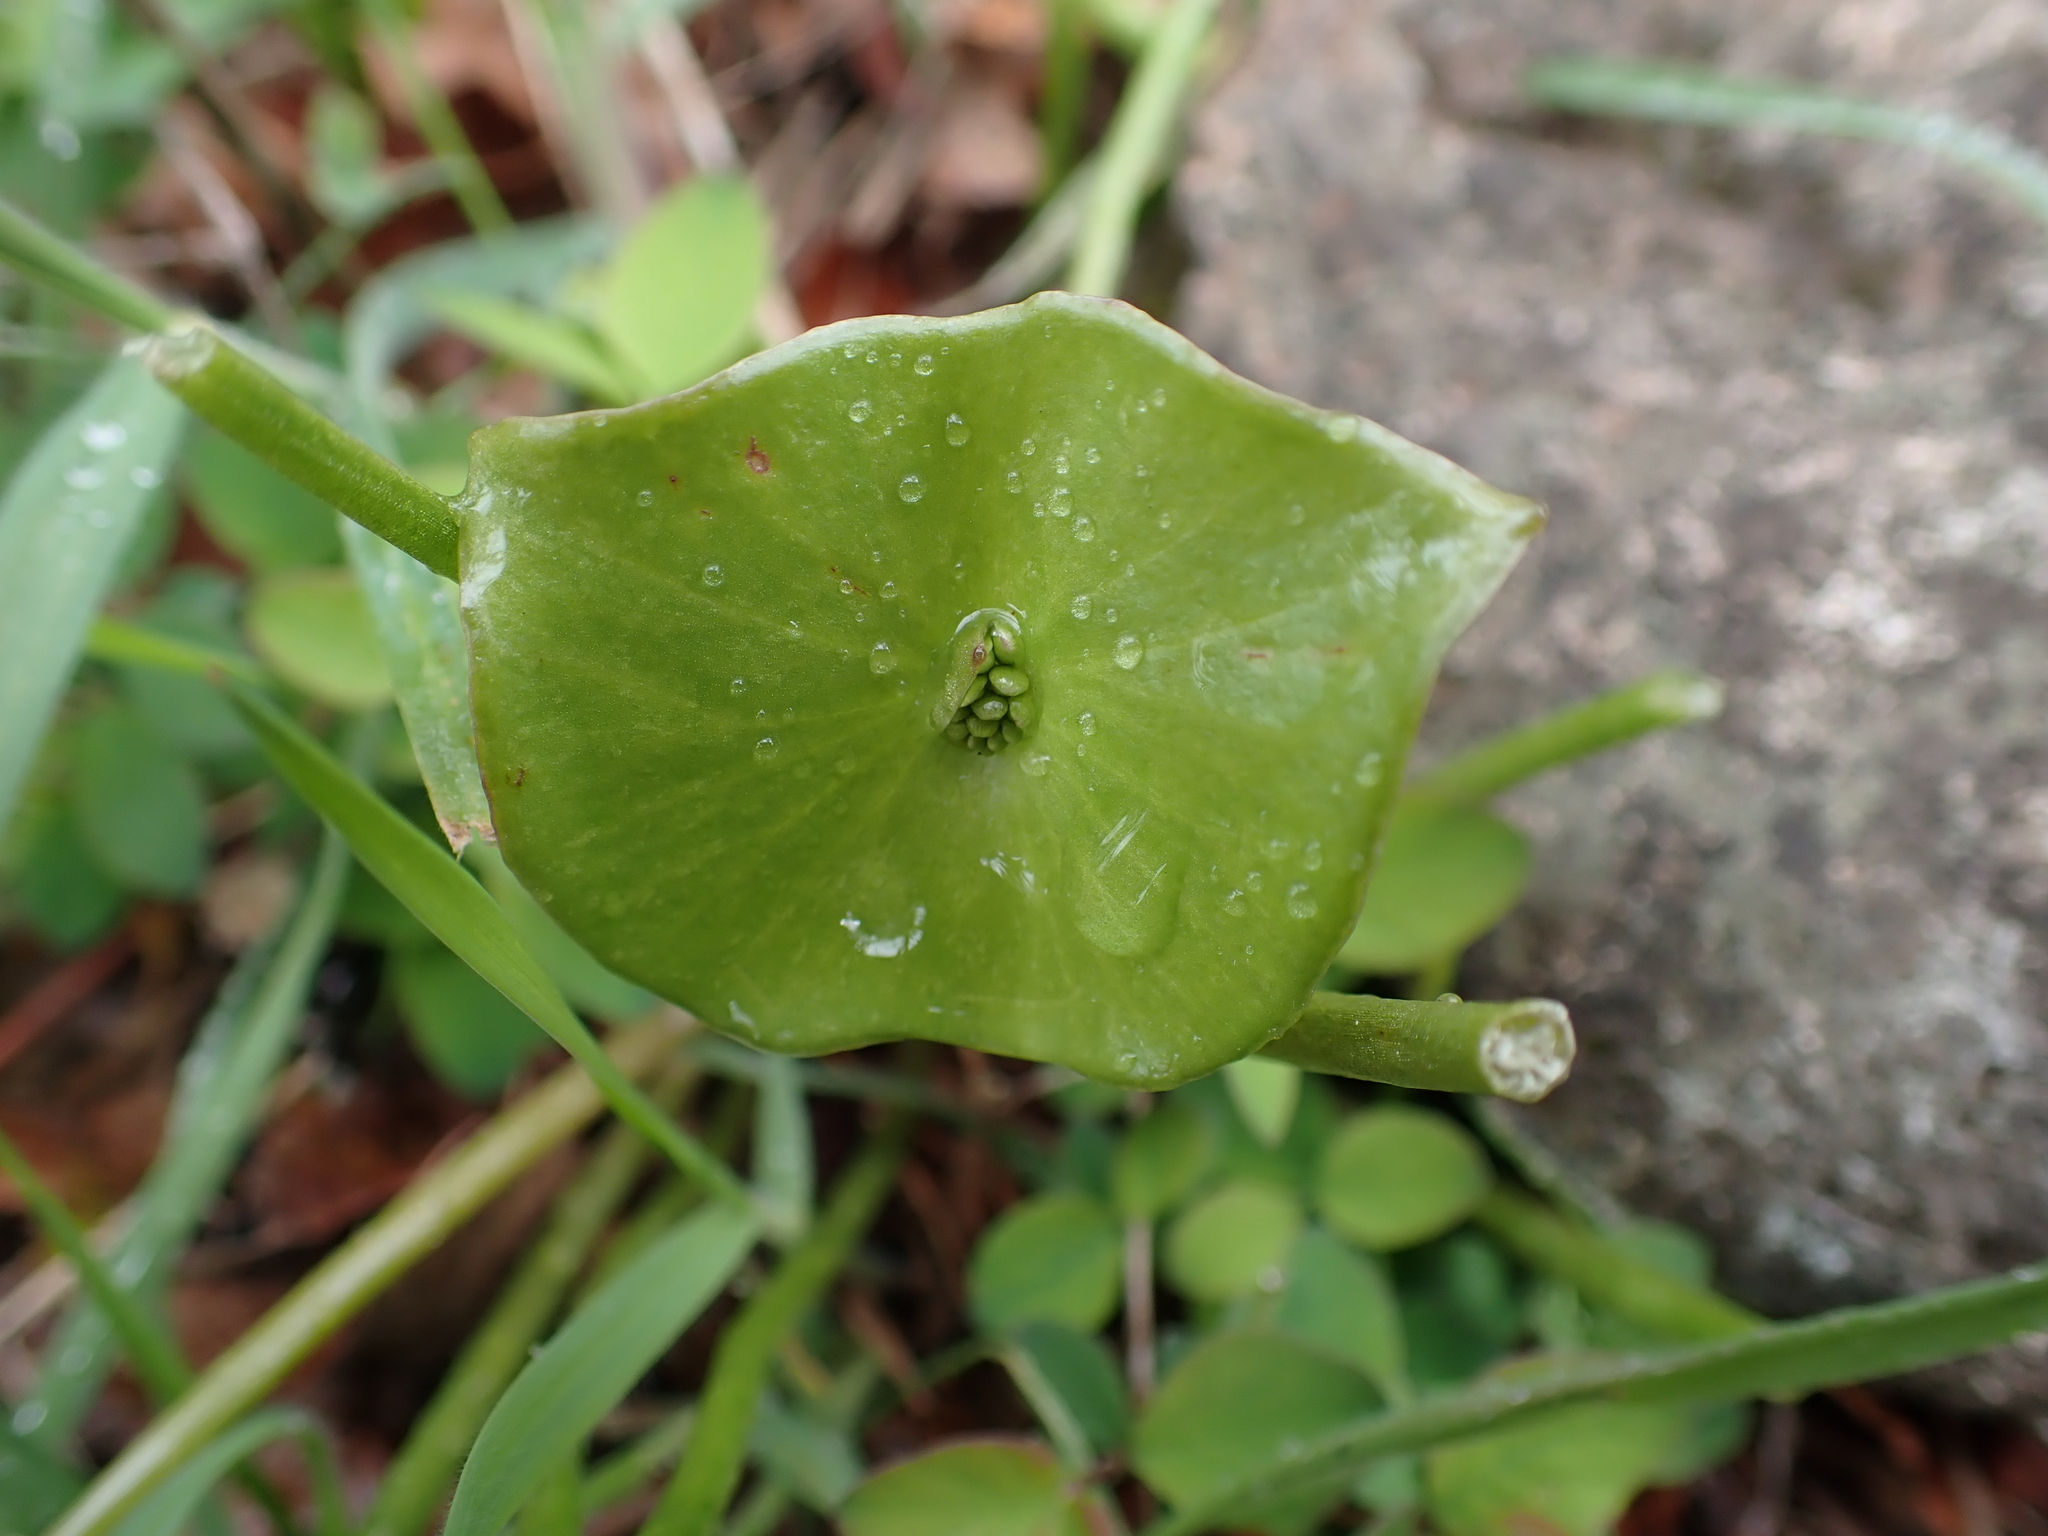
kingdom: Plantae
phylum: Tracheophyta
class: Magnoliopsida
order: Caryophyllales
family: Montiaceae
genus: Claytonia
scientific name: Claytonia perfoliata
